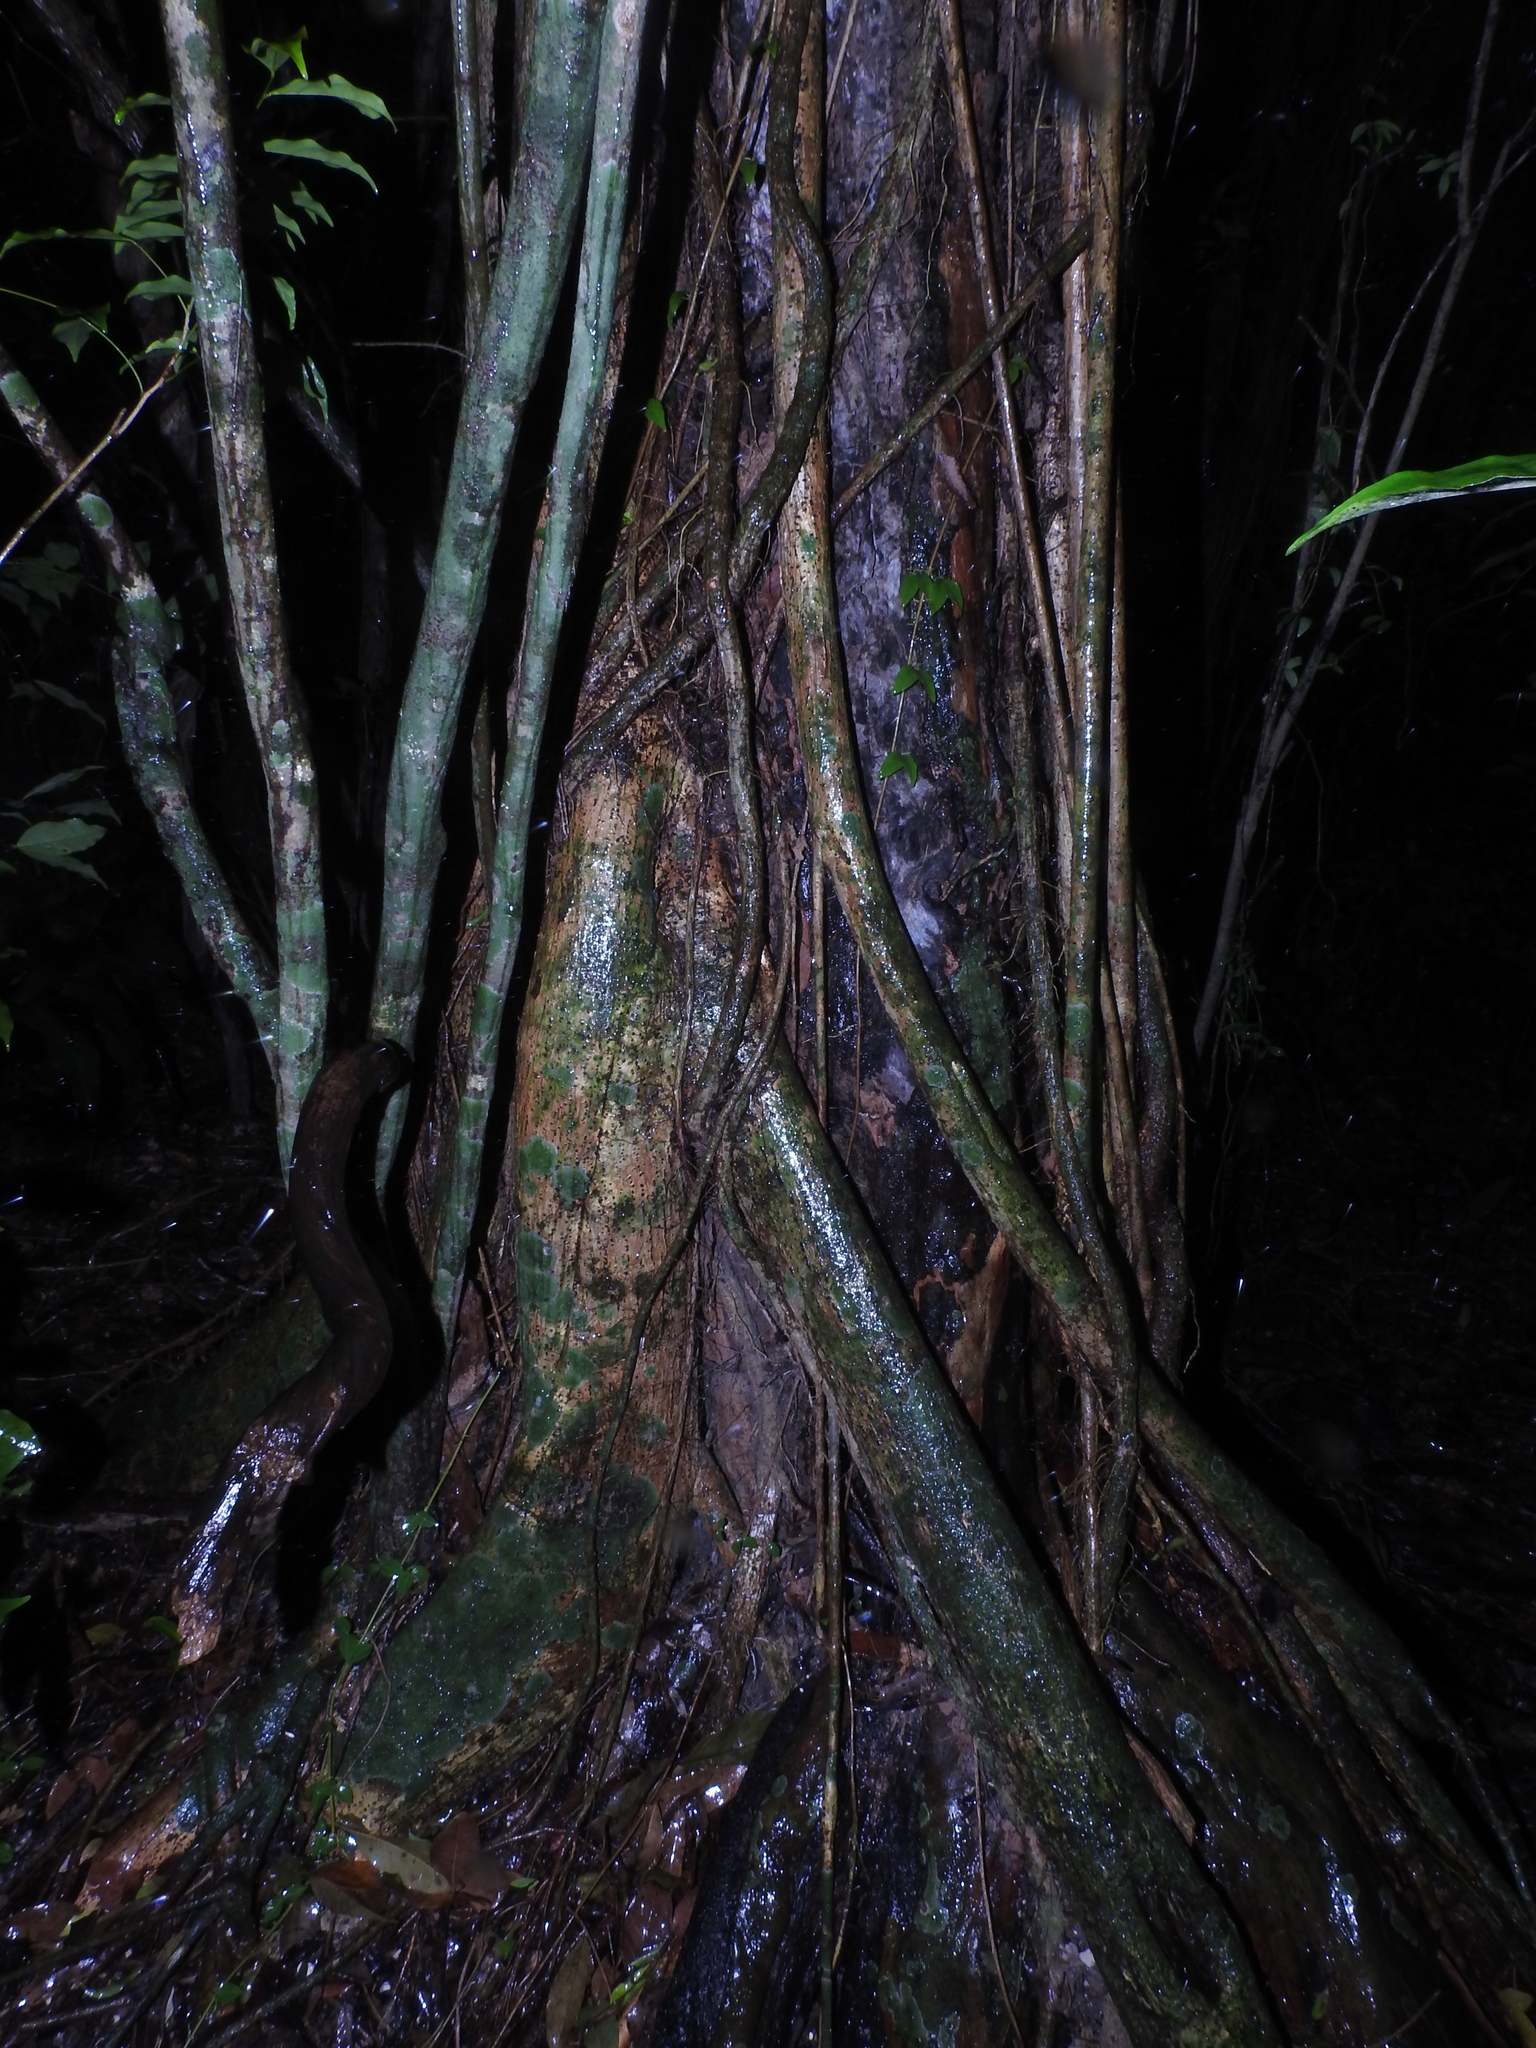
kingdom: Plantae
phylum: Tracheophyta
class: Magnoliopsida
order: Rosales
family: Moraceae
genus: Ficus
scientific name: Ficus aurea
